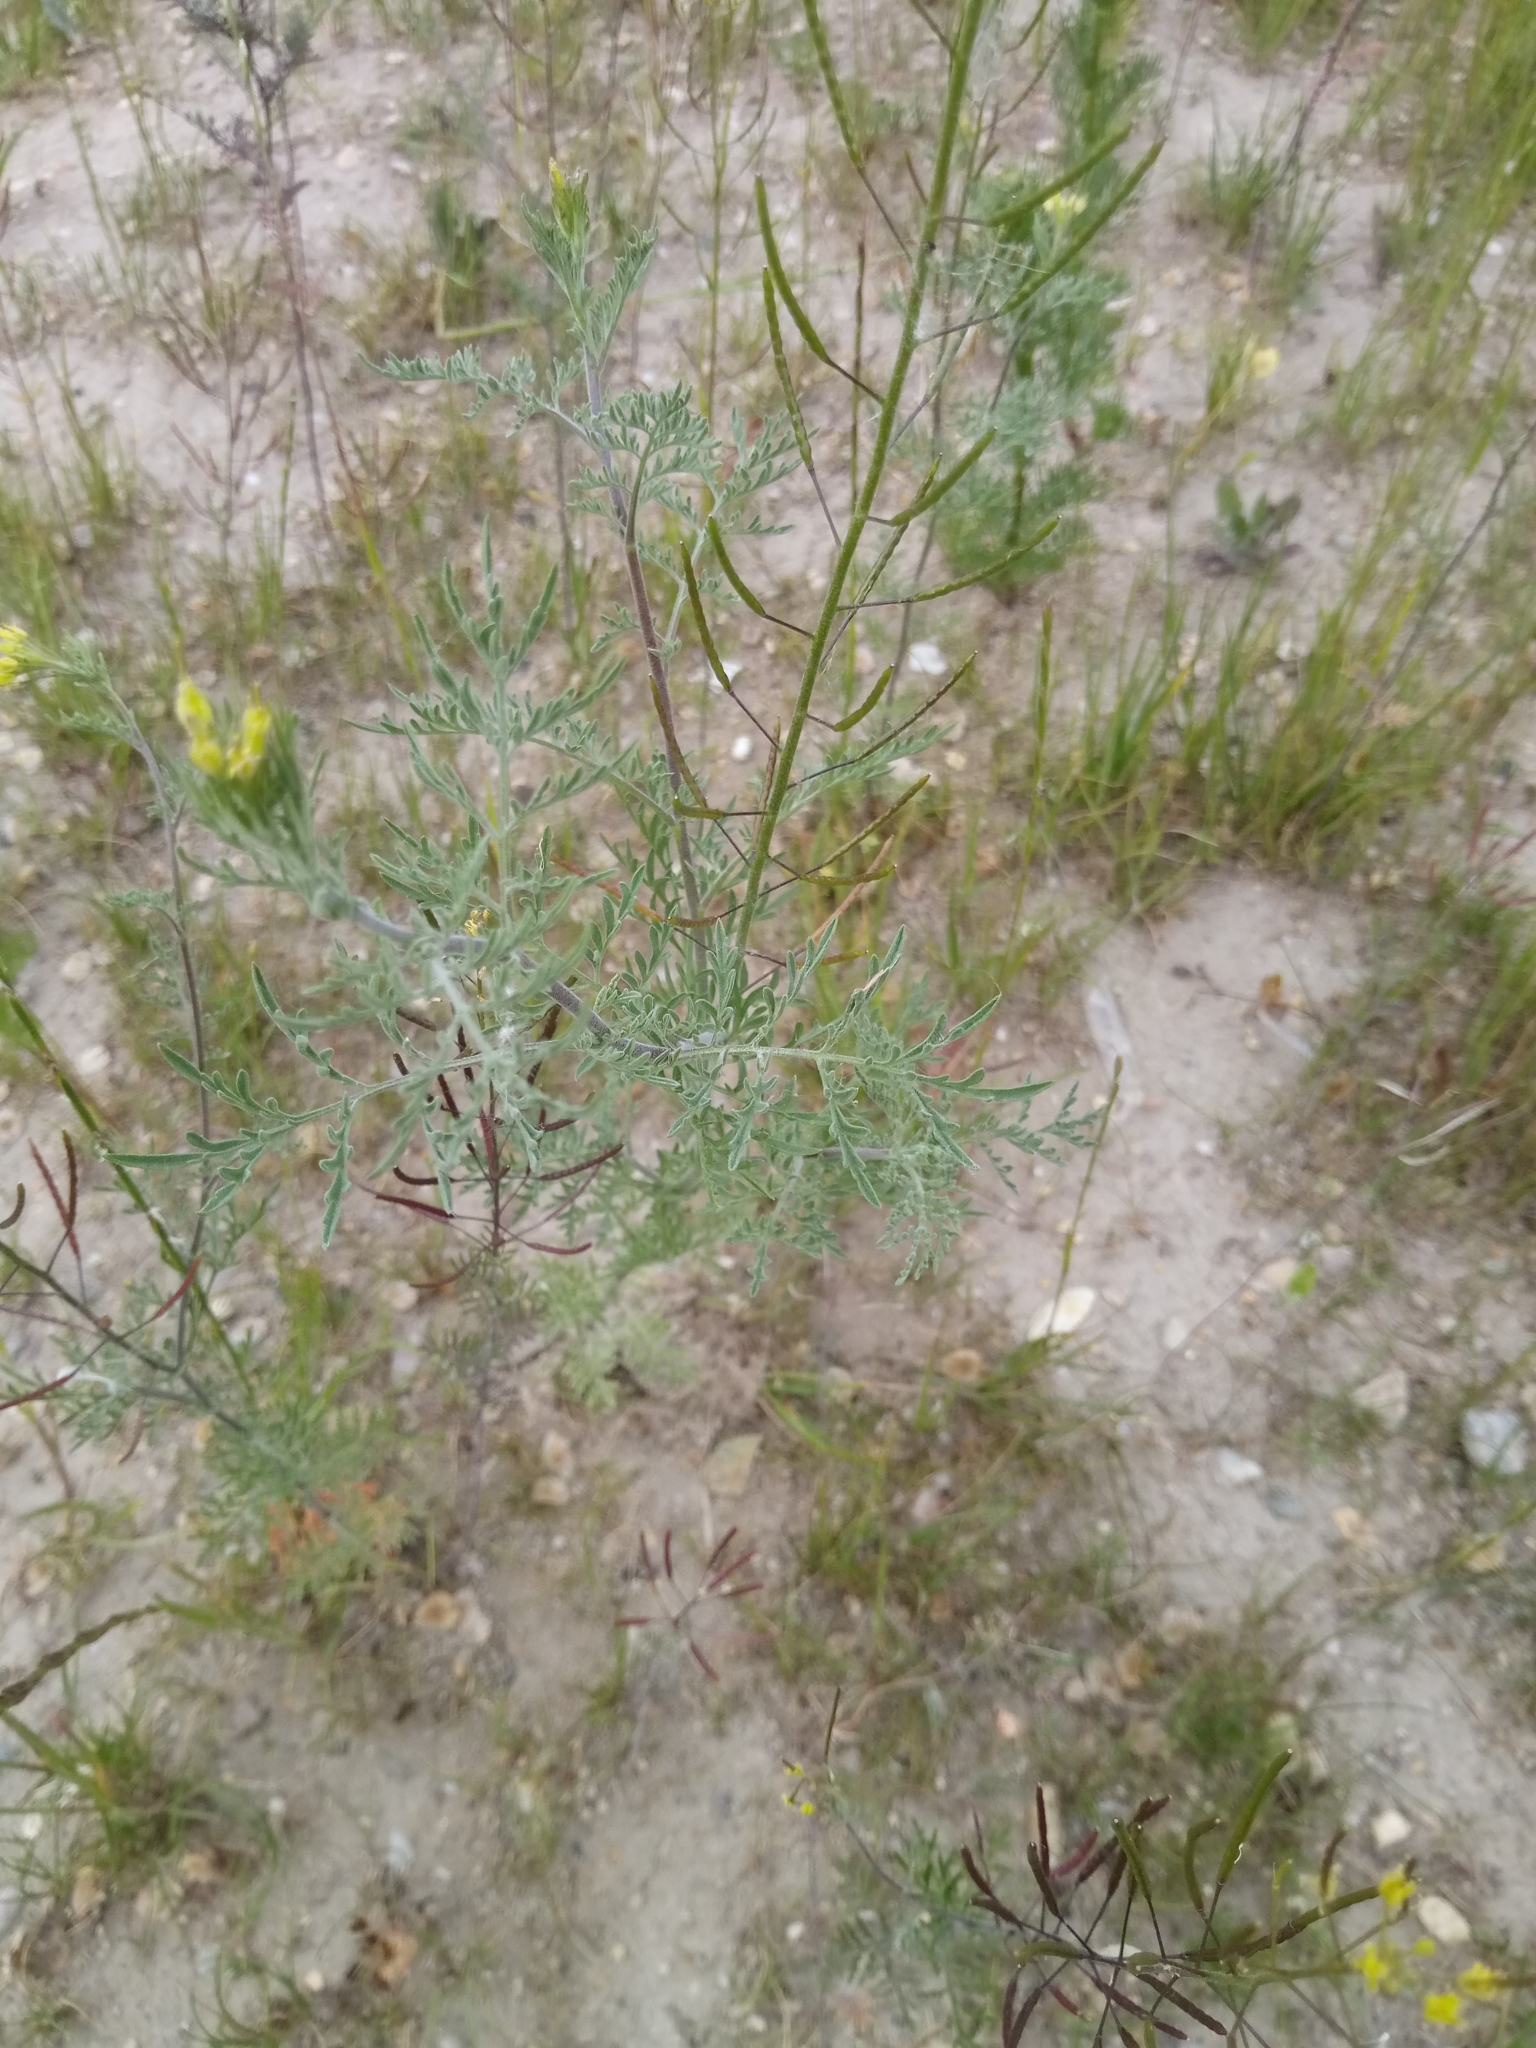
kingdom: Plantae
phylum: Tracheophyta
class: Magnoliopsida
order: Brassicales
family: Brassicaceae
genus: Descurainia
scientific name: Descurainia sophia
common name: Flixweed
